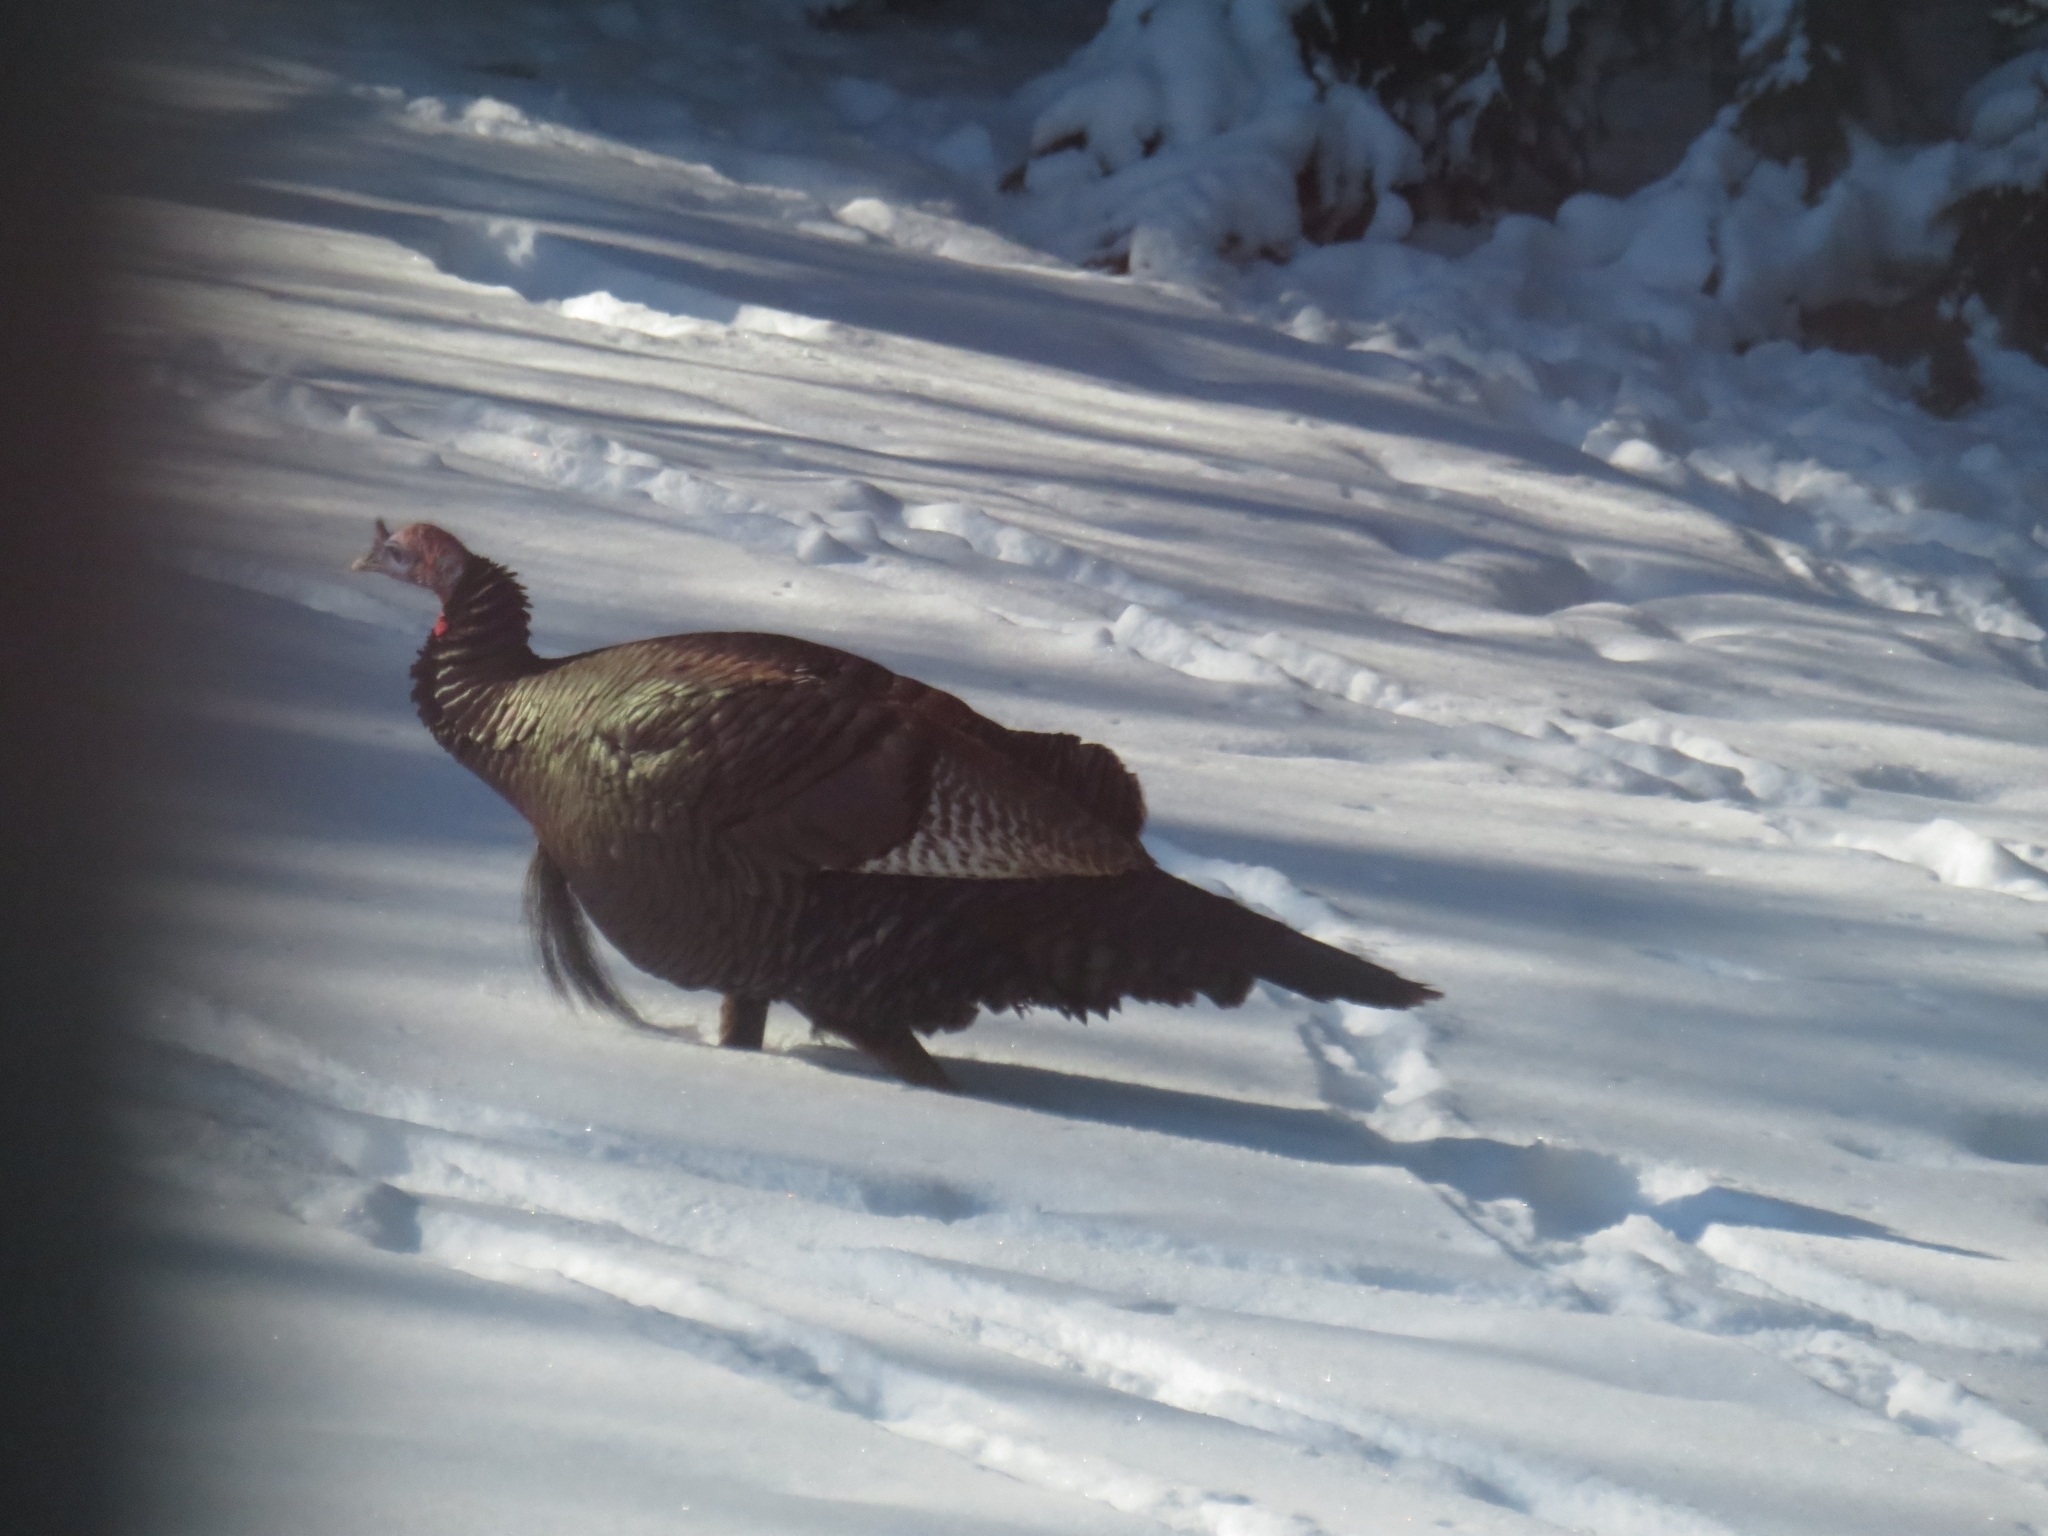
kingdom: Animalia
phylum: Chordata
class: Aves
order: Galliformes
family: Phasianidae
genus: Meleagris
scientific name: Meleagris gallopavo
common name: Wild turkey
